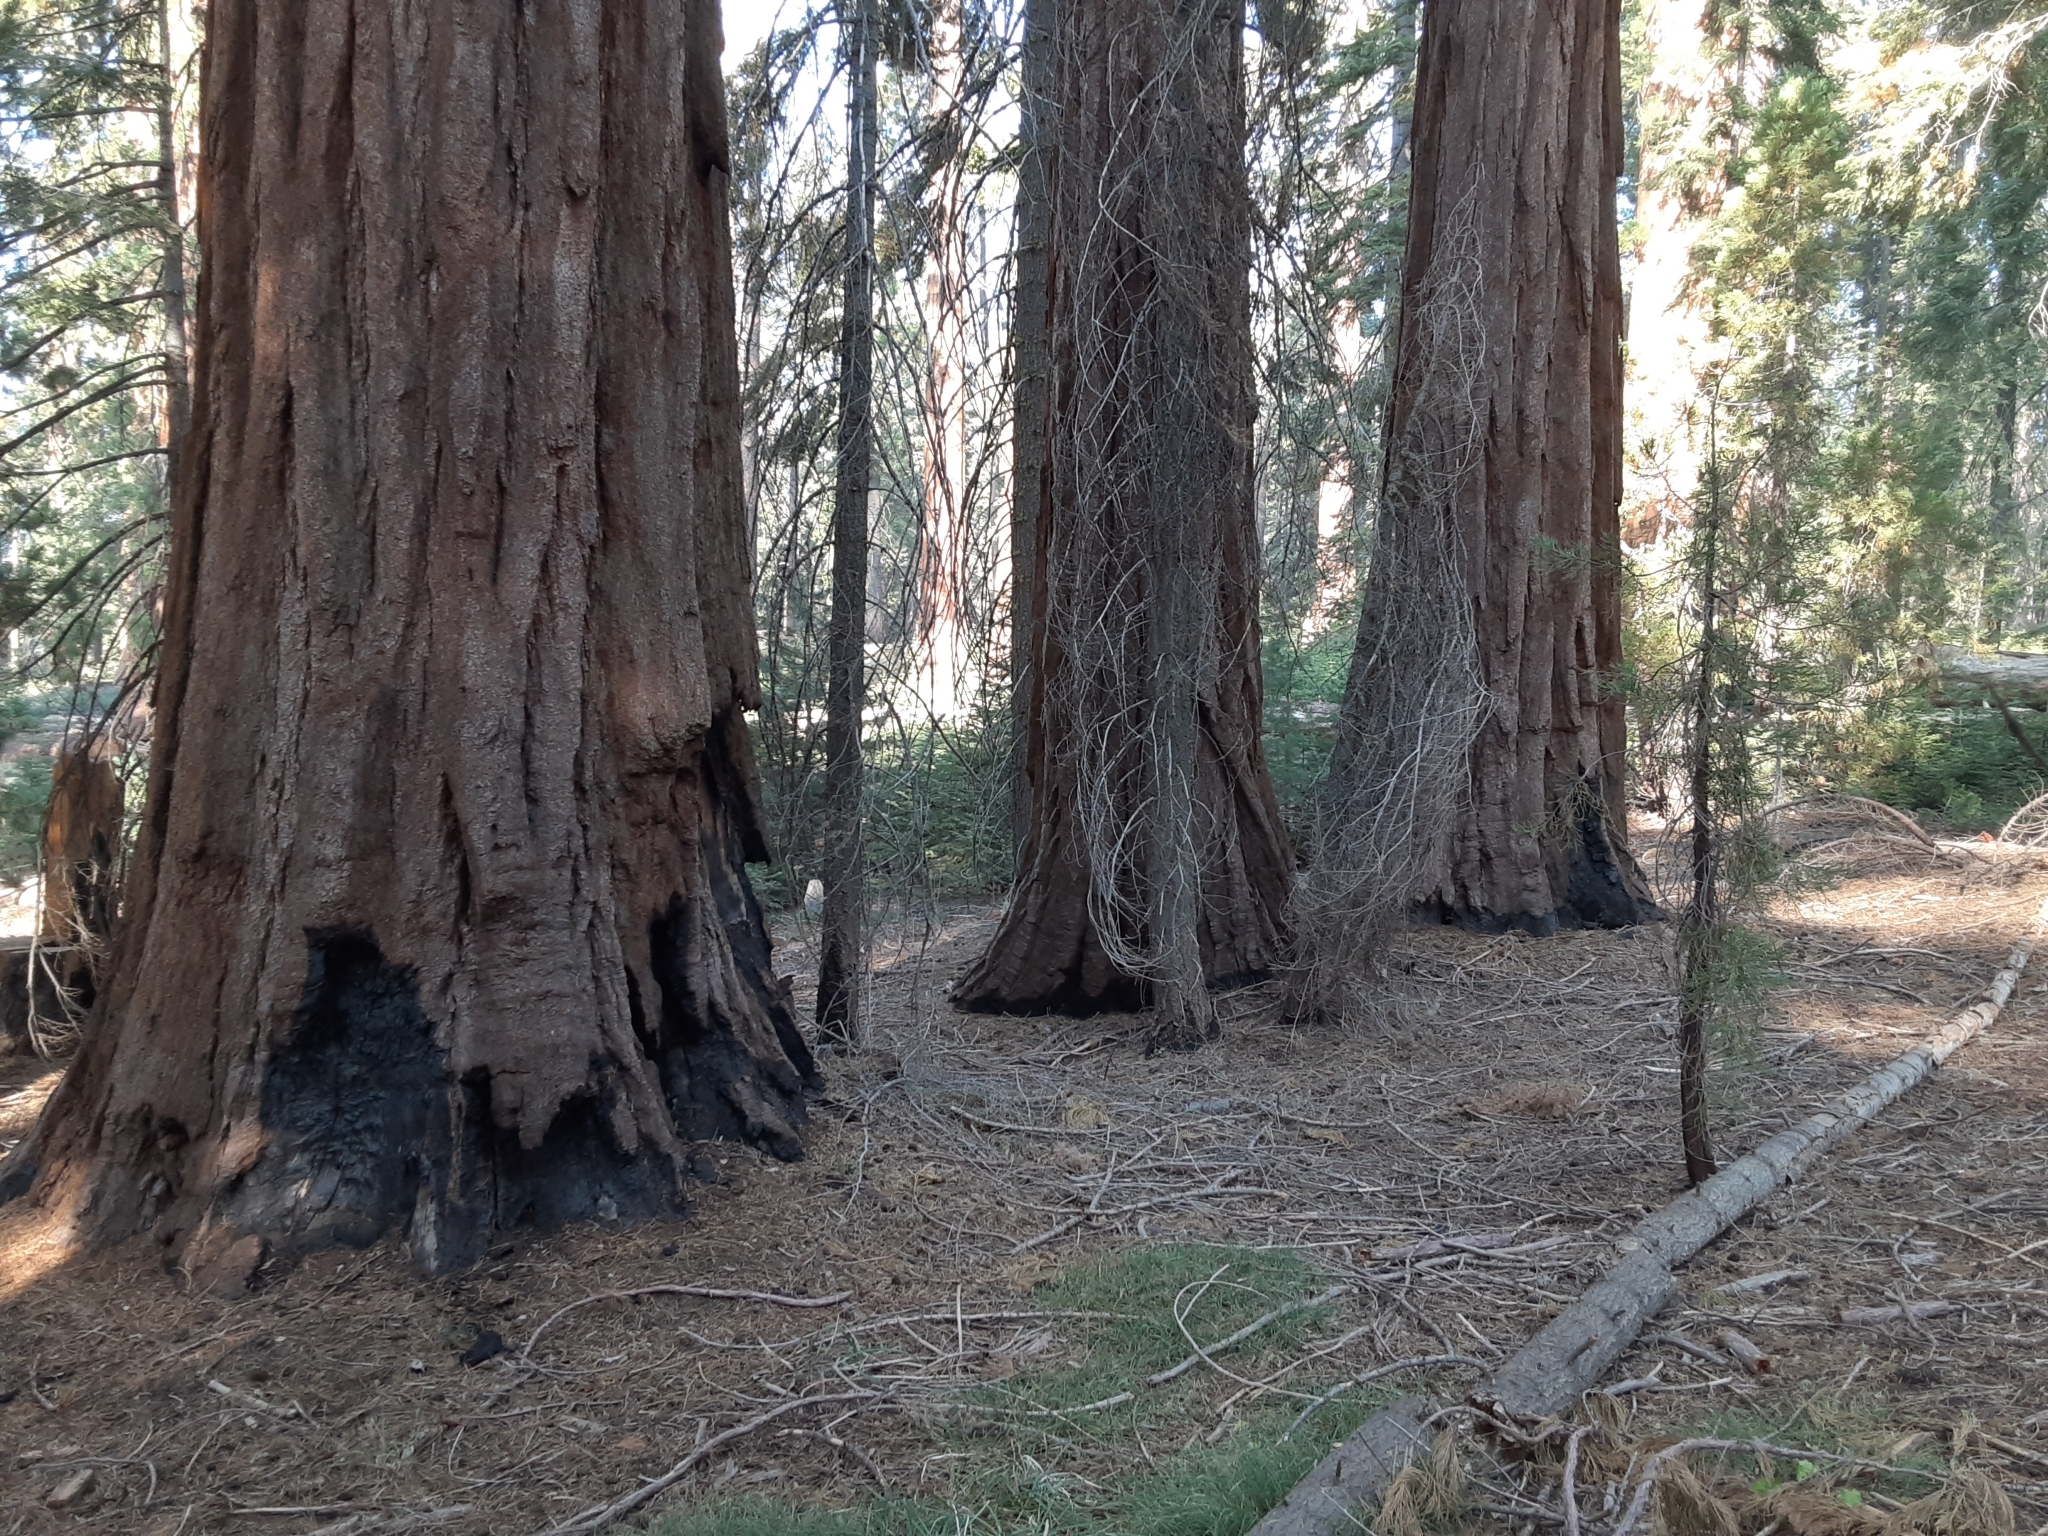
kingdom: Plantae
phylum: Tracheophyta
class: Pinopsida
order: Pinales
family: Cupressaceae
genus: Sequoiadendron
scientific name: Sequoiadendron giganteum
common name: Wellingtonia
